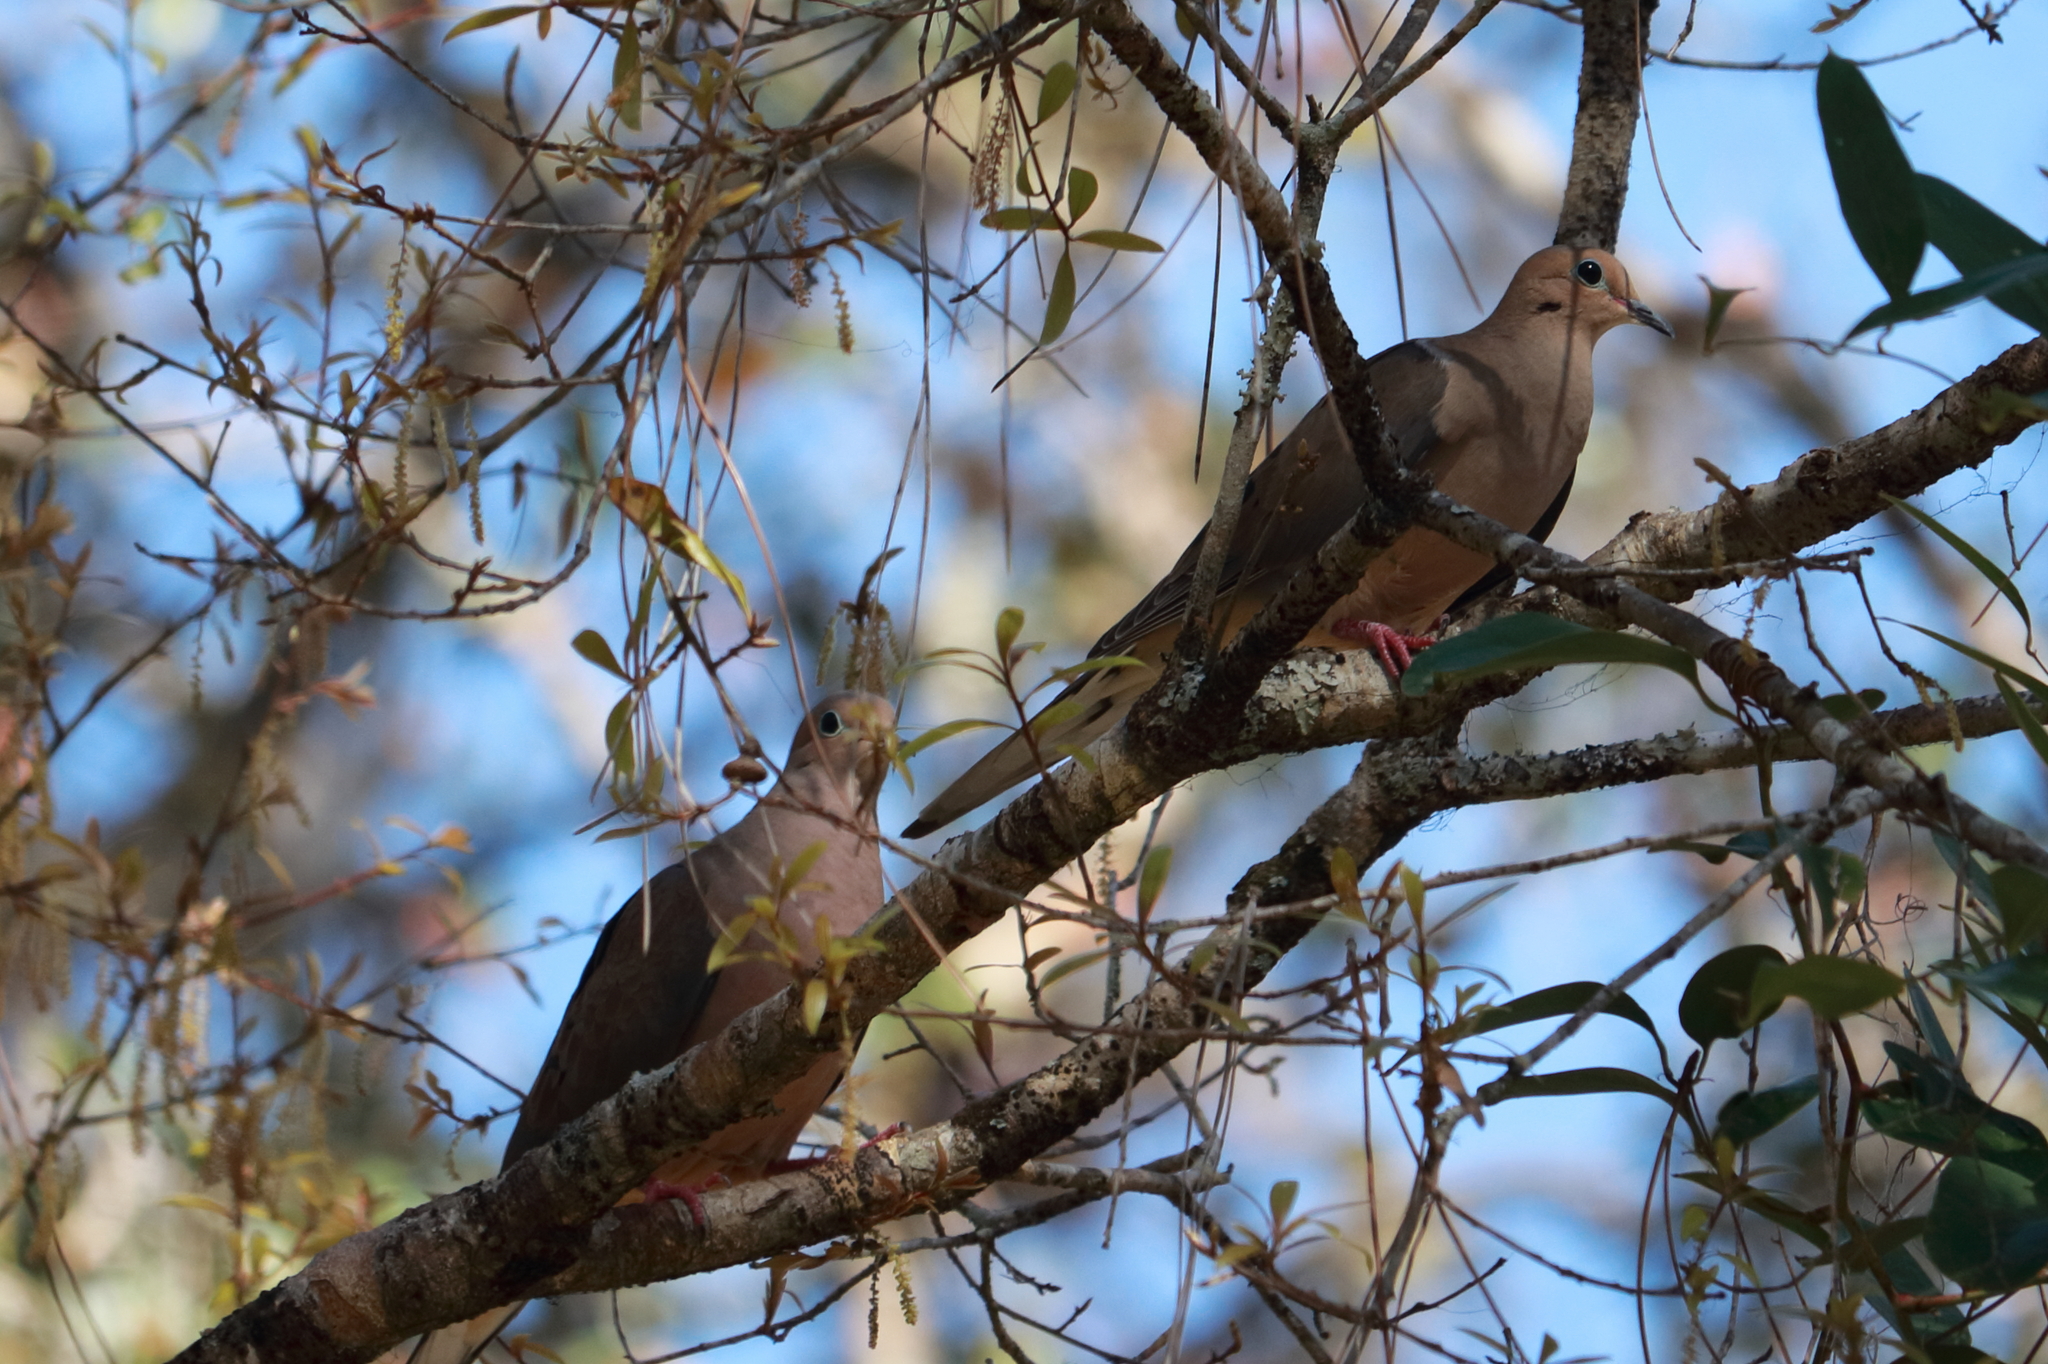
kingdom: Animalia
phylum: Chordata
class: Aves
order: Columbiformes
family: Columbidae
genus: Zenaida
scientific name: Zenaida macroura
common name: Mourning dove
